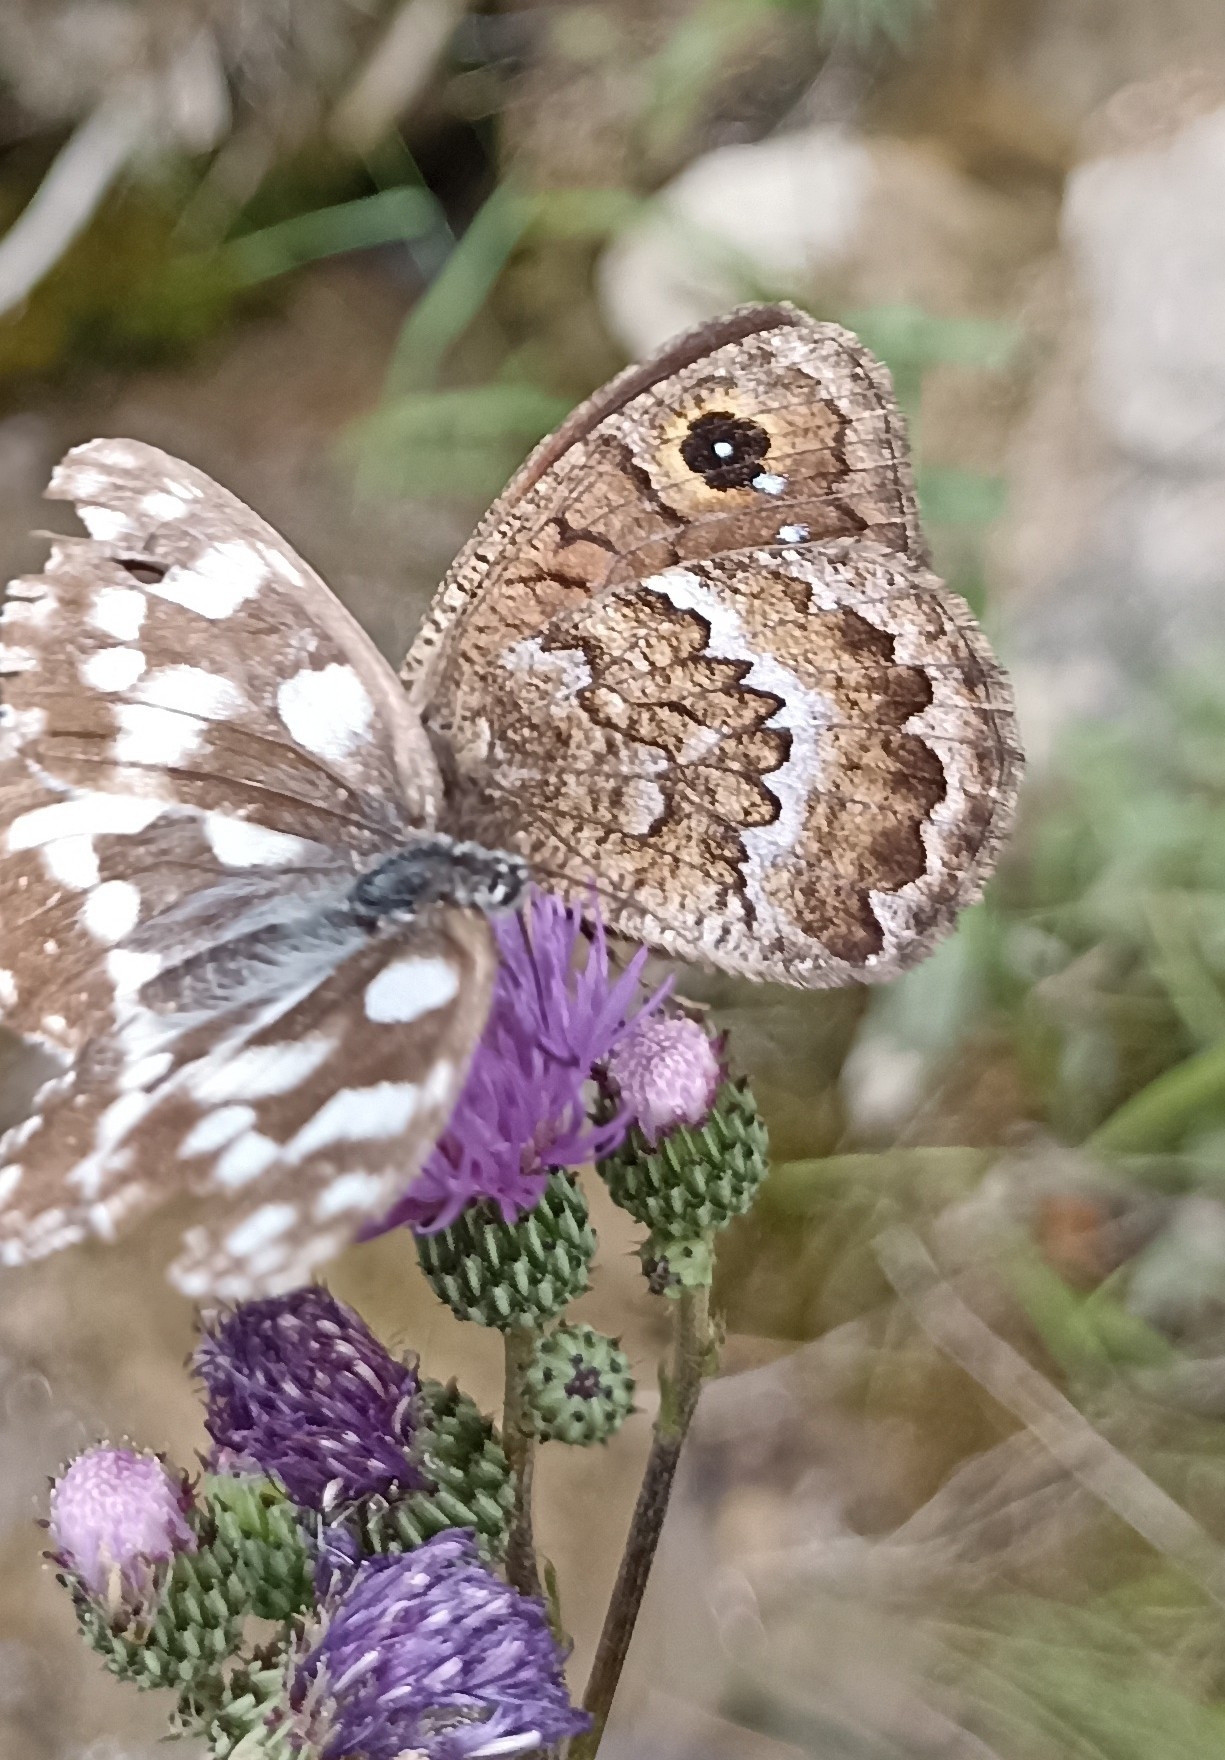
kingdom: Animalia
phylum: Arthropoda
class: Insecta
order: Lepidoptera
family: Nymphalidae
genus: Satyrus
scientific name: Satyrus actaea
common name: Black satyr
